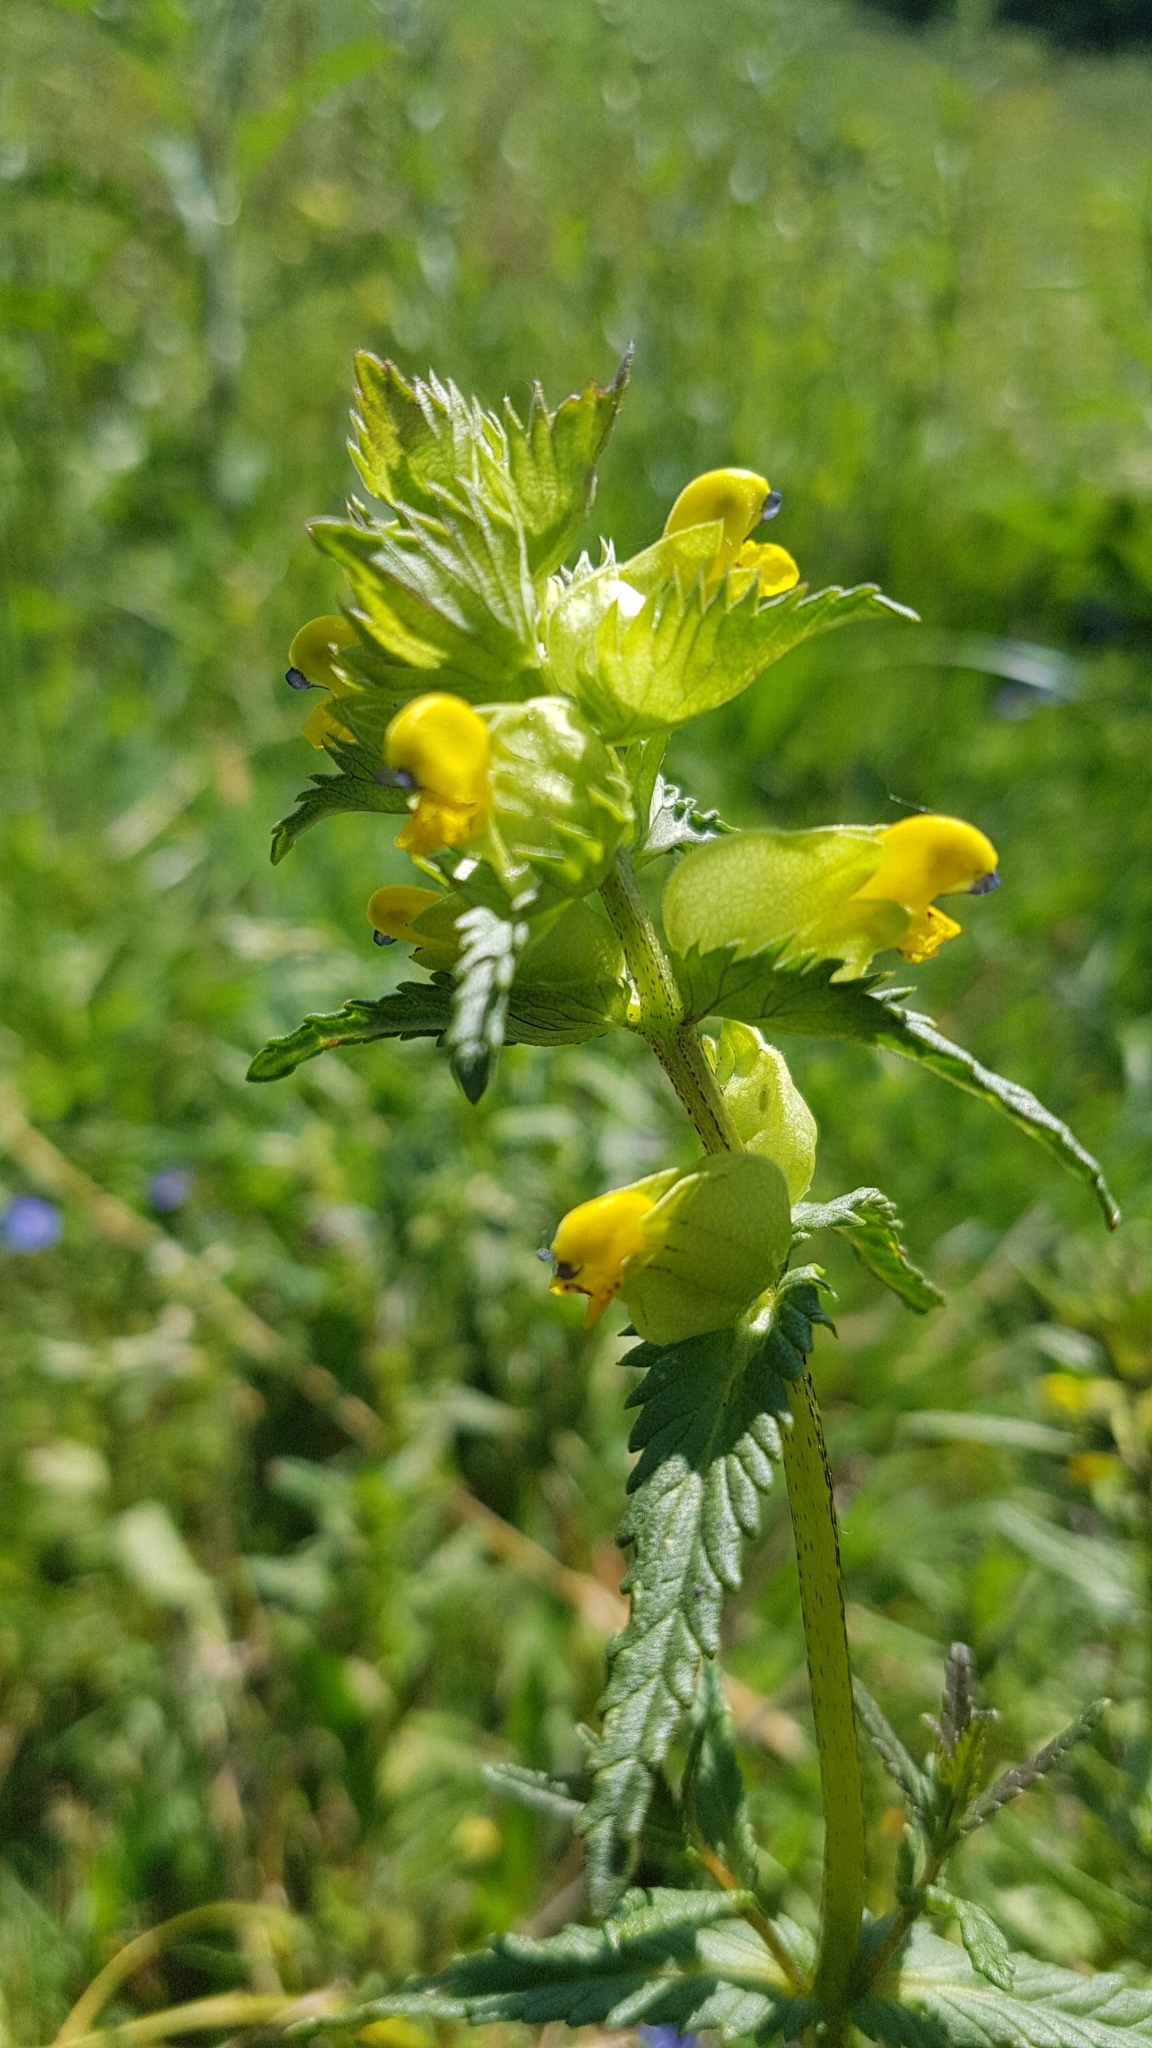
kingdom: Plantae
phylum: Tracheophyta
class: Magnoliopsida
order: Lamiales
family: Orobanchaceae
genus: Rhinanthus
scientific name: Rhinanthus minor
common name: Yellow-rattle
